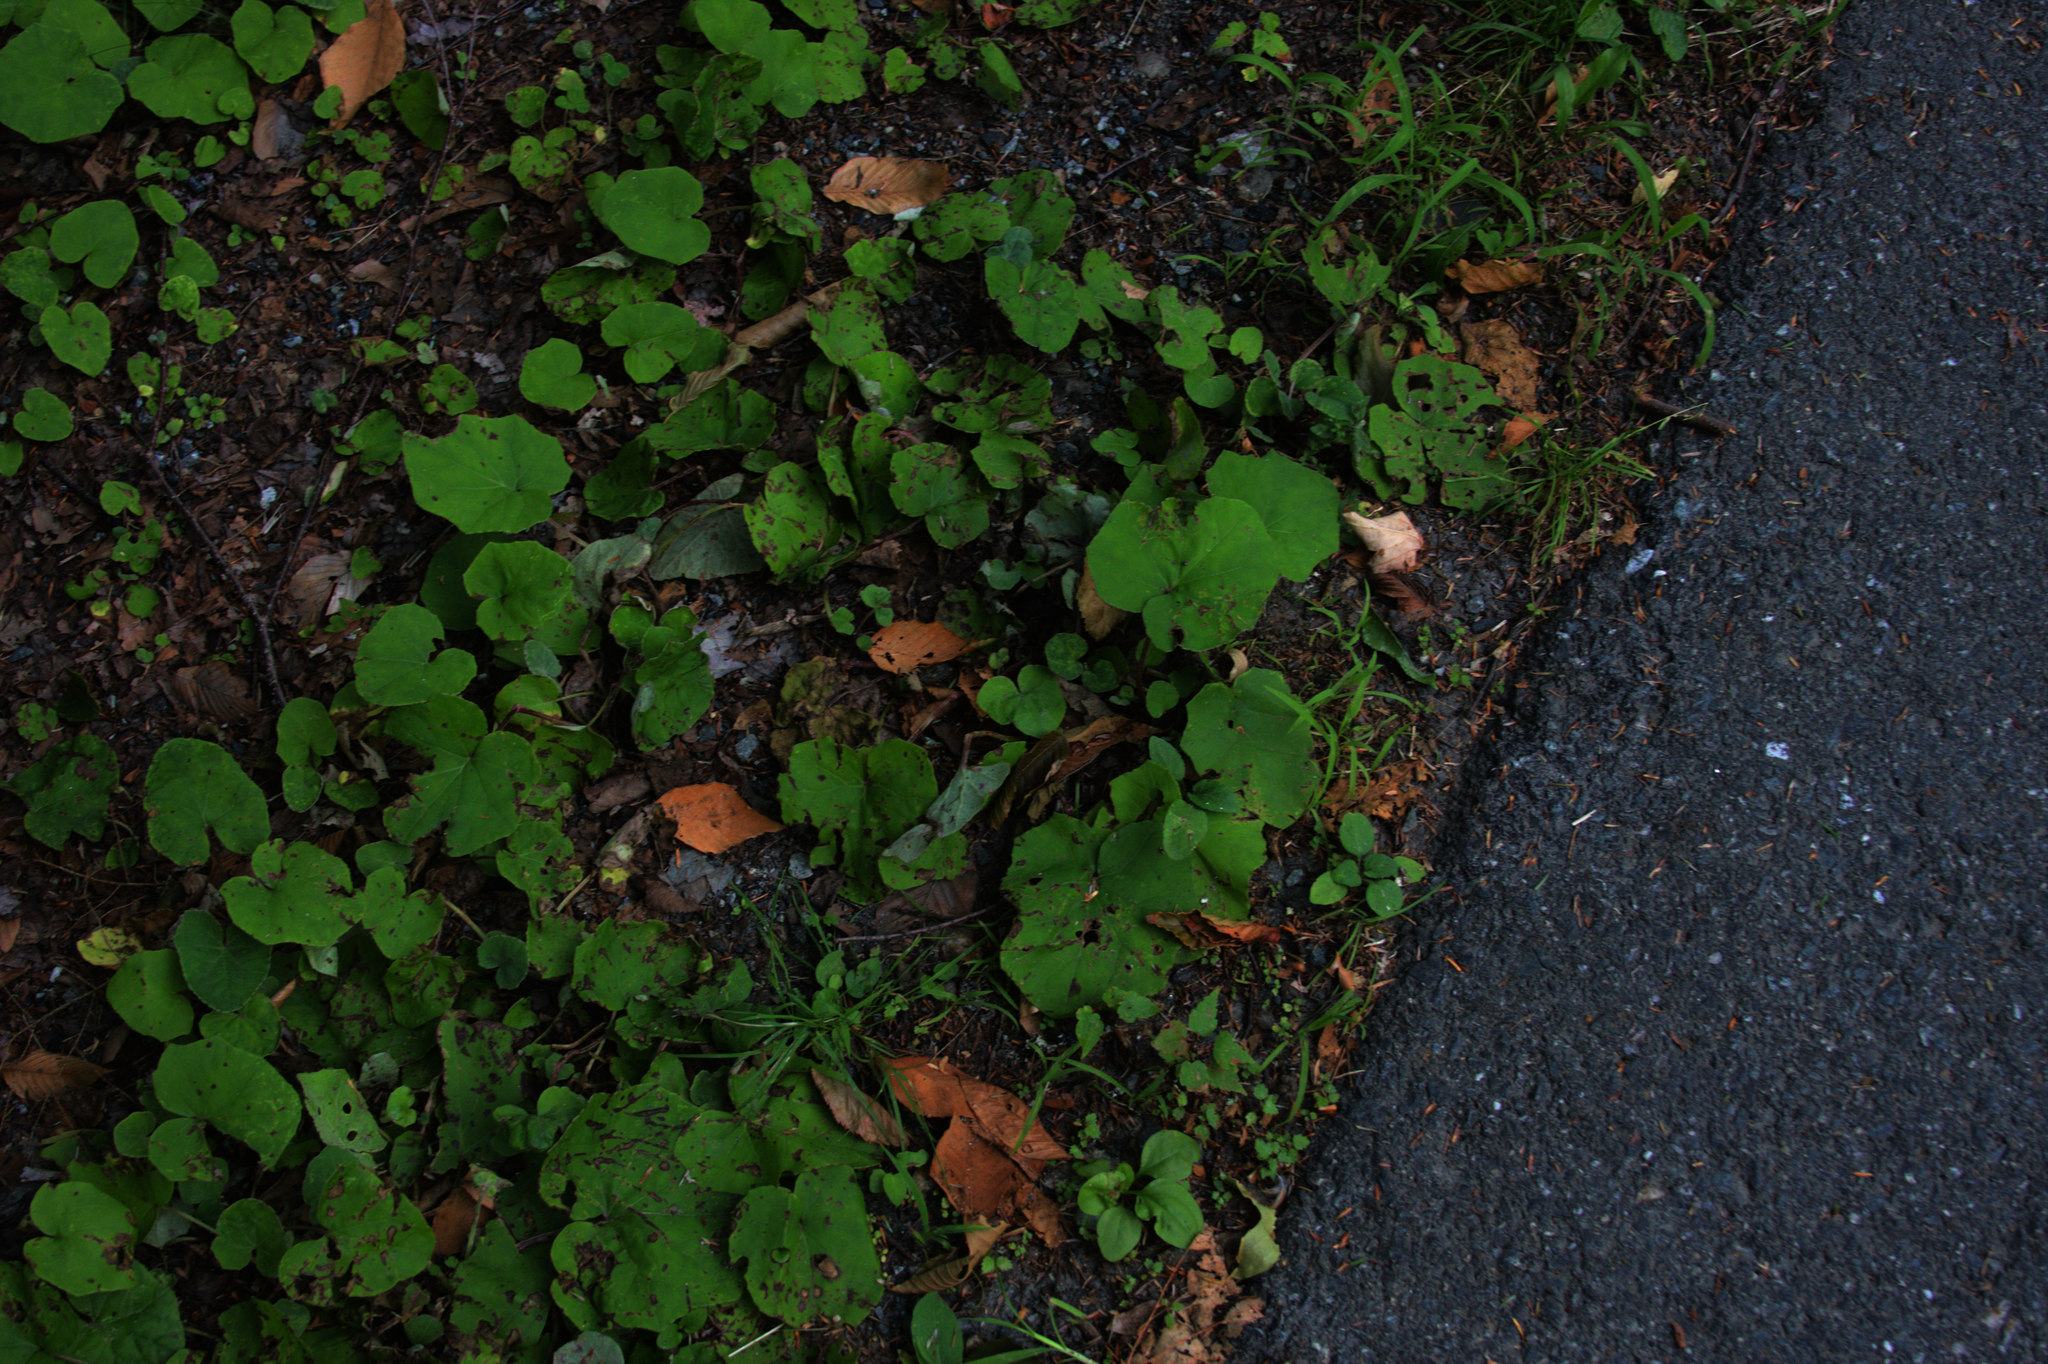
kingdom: Plantae
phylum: Tracheophyta
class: Magnoliopsida
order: Asterales
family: Asteraceae
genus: Tussilago
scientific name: Tussilago farfara
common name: Coltsfoot
